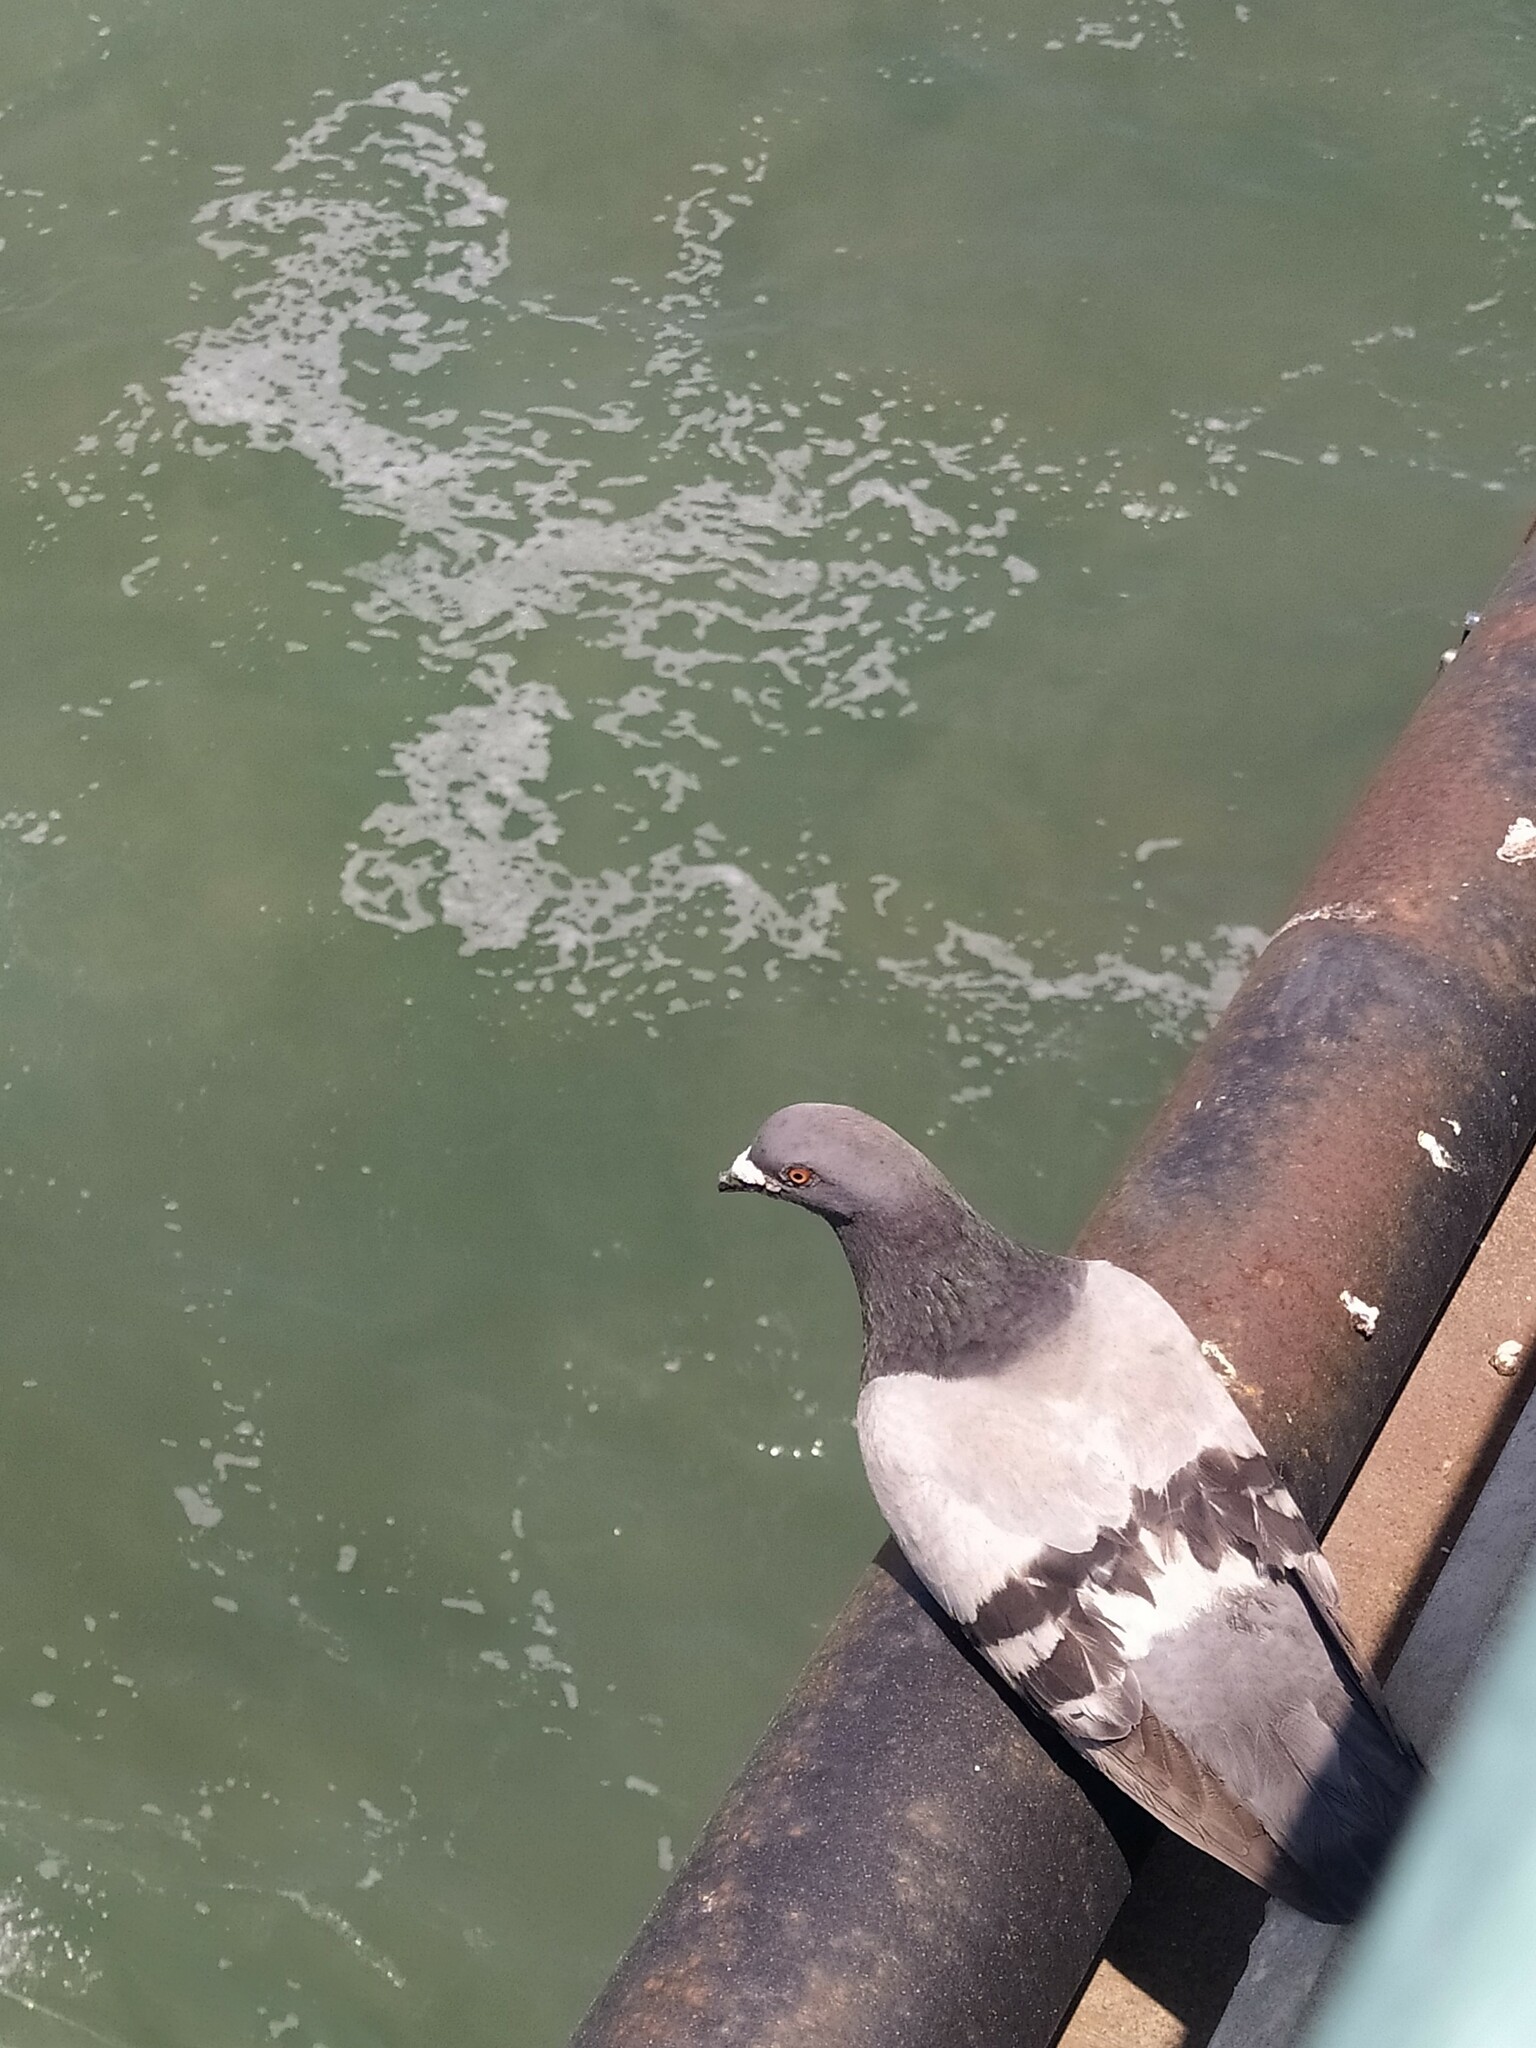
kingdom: Animalia
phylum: Chordata
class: Aves
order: Columbiformes
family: Columbidae
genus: Columba
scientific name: Columba livia
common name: Rock pigeon
